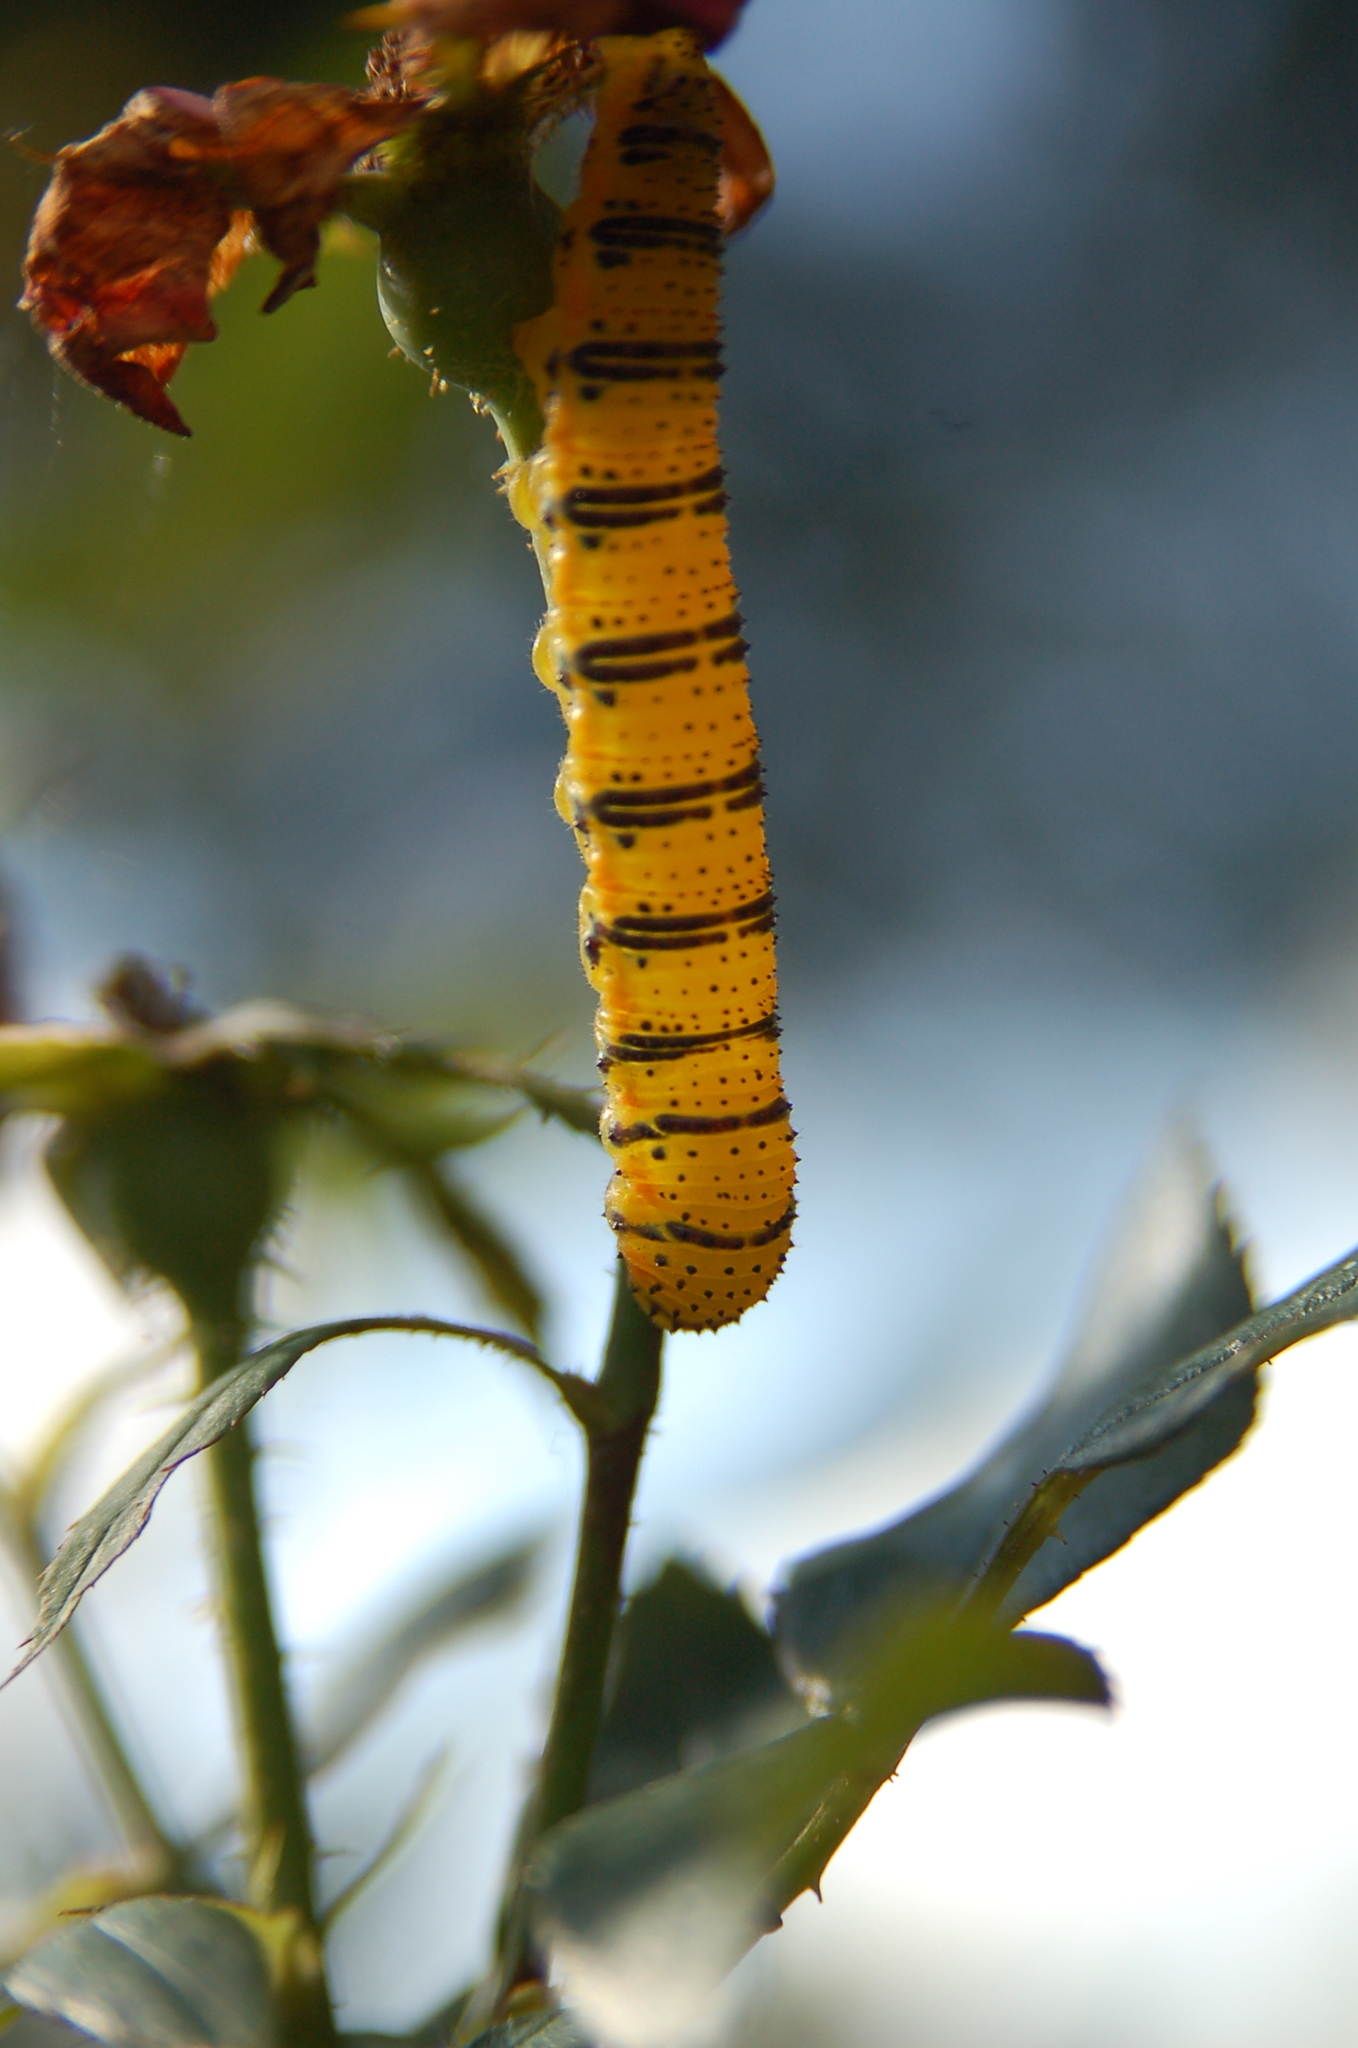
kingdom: Animalia
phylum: Arthropoda
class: Insecta
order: Lepidoptera
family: Pieridae
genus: Phoebis
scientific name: Phoebis sennae
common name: Cloudless sulphur
